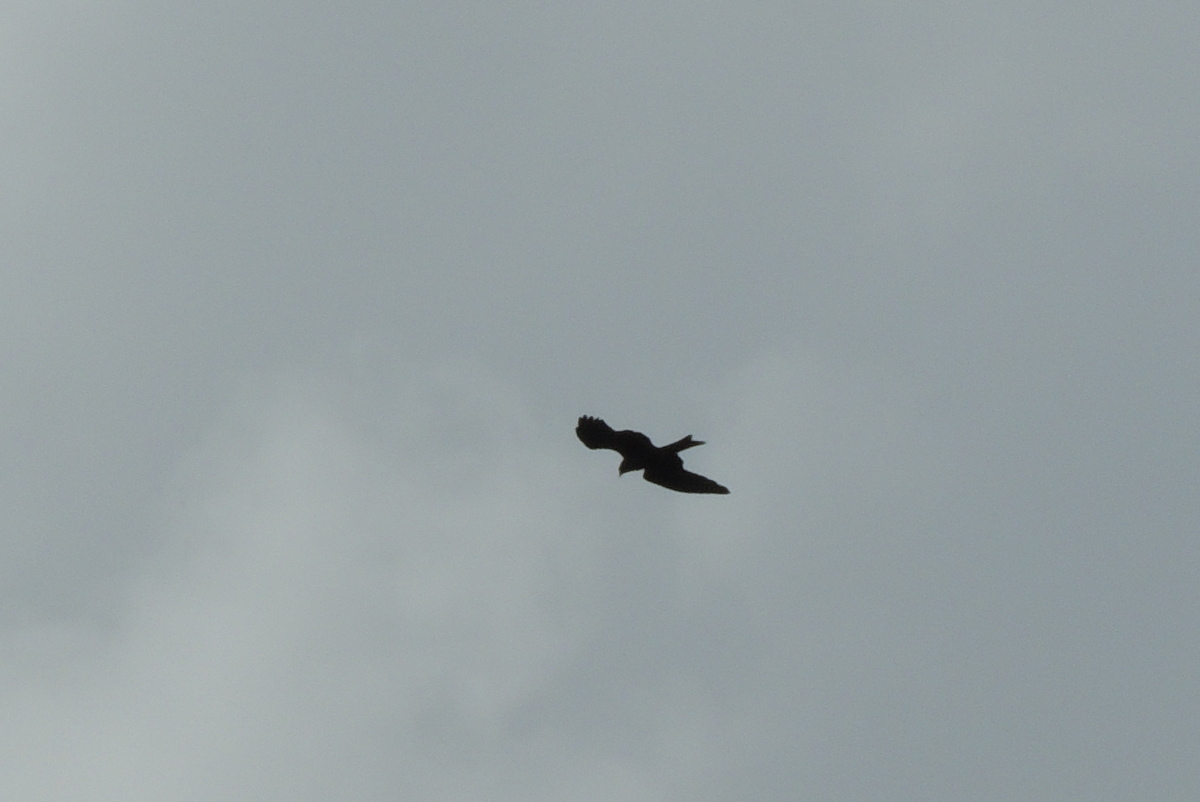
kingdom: Animalia
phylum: Chordata
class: Aves
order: Accipitriformes
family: Accipitridae
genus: Milvus
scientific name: Milvus migrans
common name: Black kite
